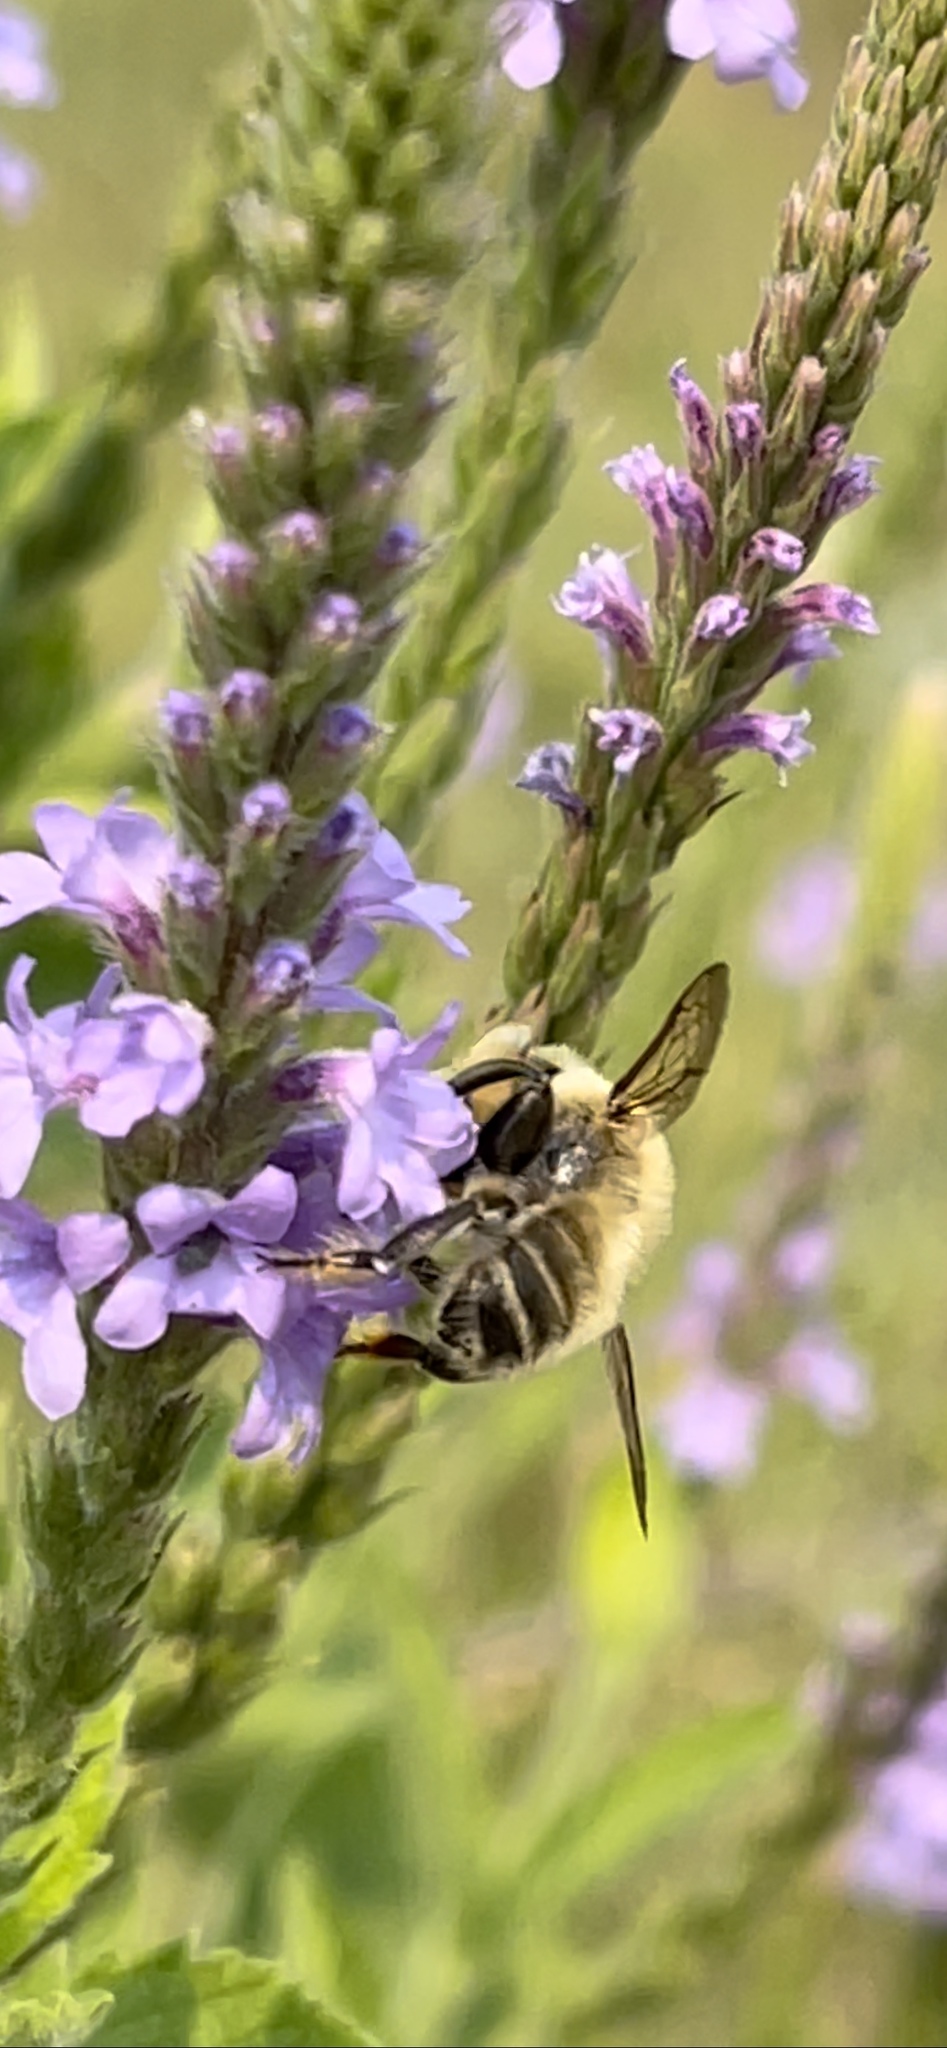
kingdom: Animalia
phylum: Arthropoda
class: Insecta
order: Hymenoptera
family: Megachilidae
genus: Megachile
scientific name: Megachile latimanus
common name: Leafcutting bee
